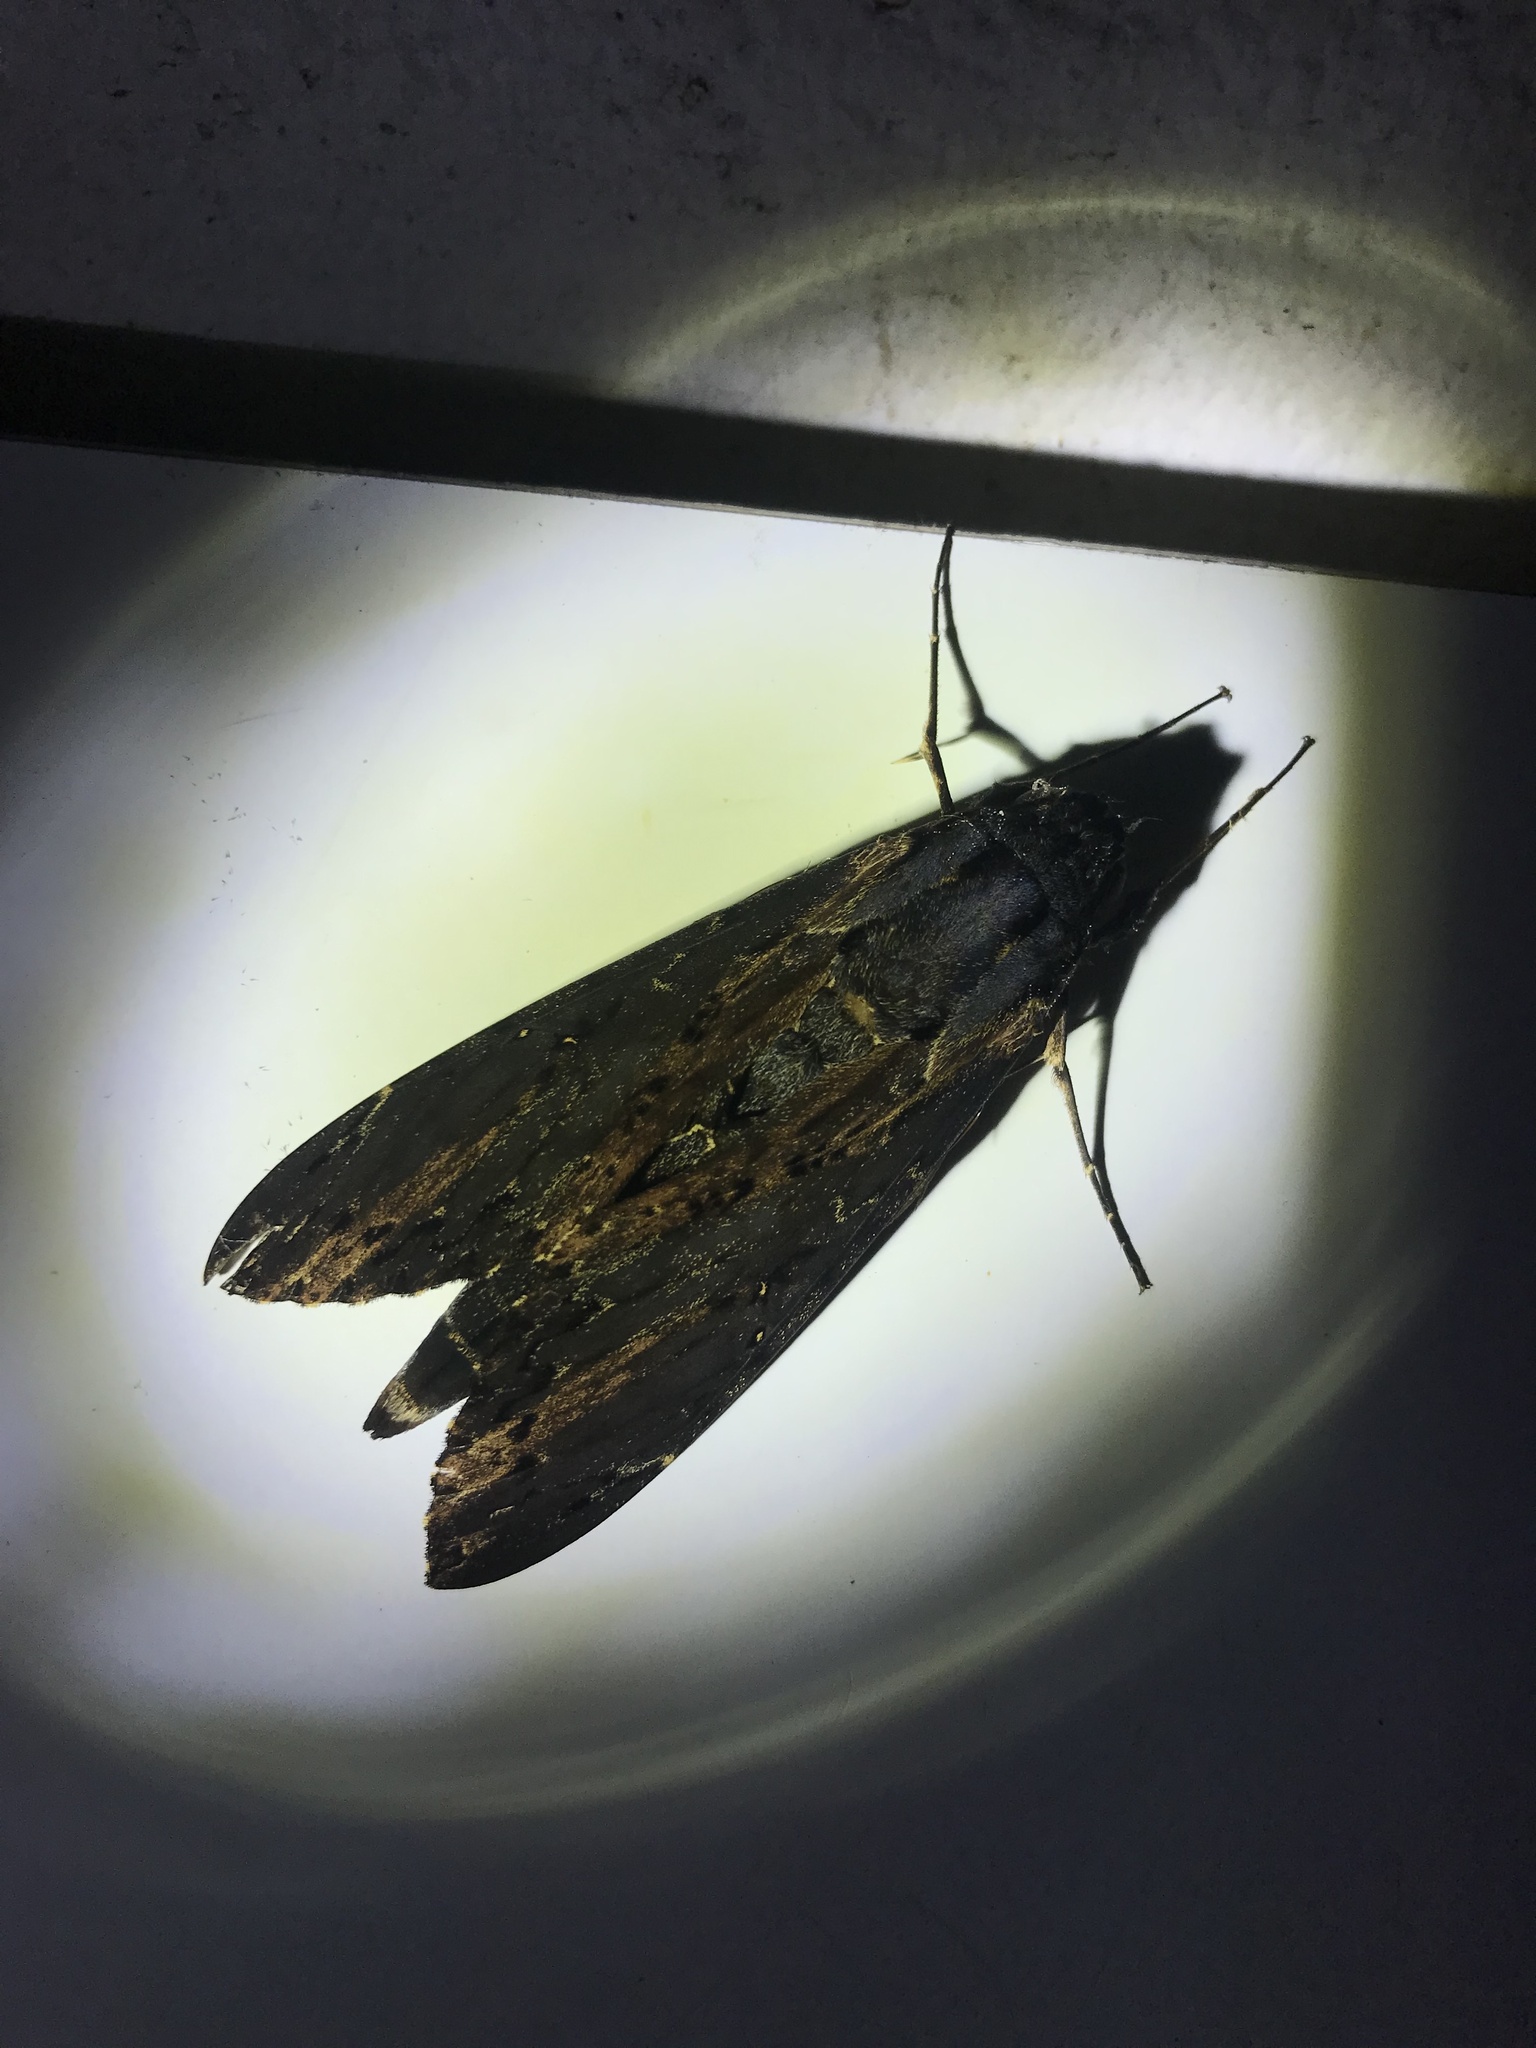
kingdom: Animalia
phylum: Arthropoda
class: Insecta
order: Lepidoptera
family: Sphingidae
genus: Neococytius
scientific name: Neococytius cluentius
